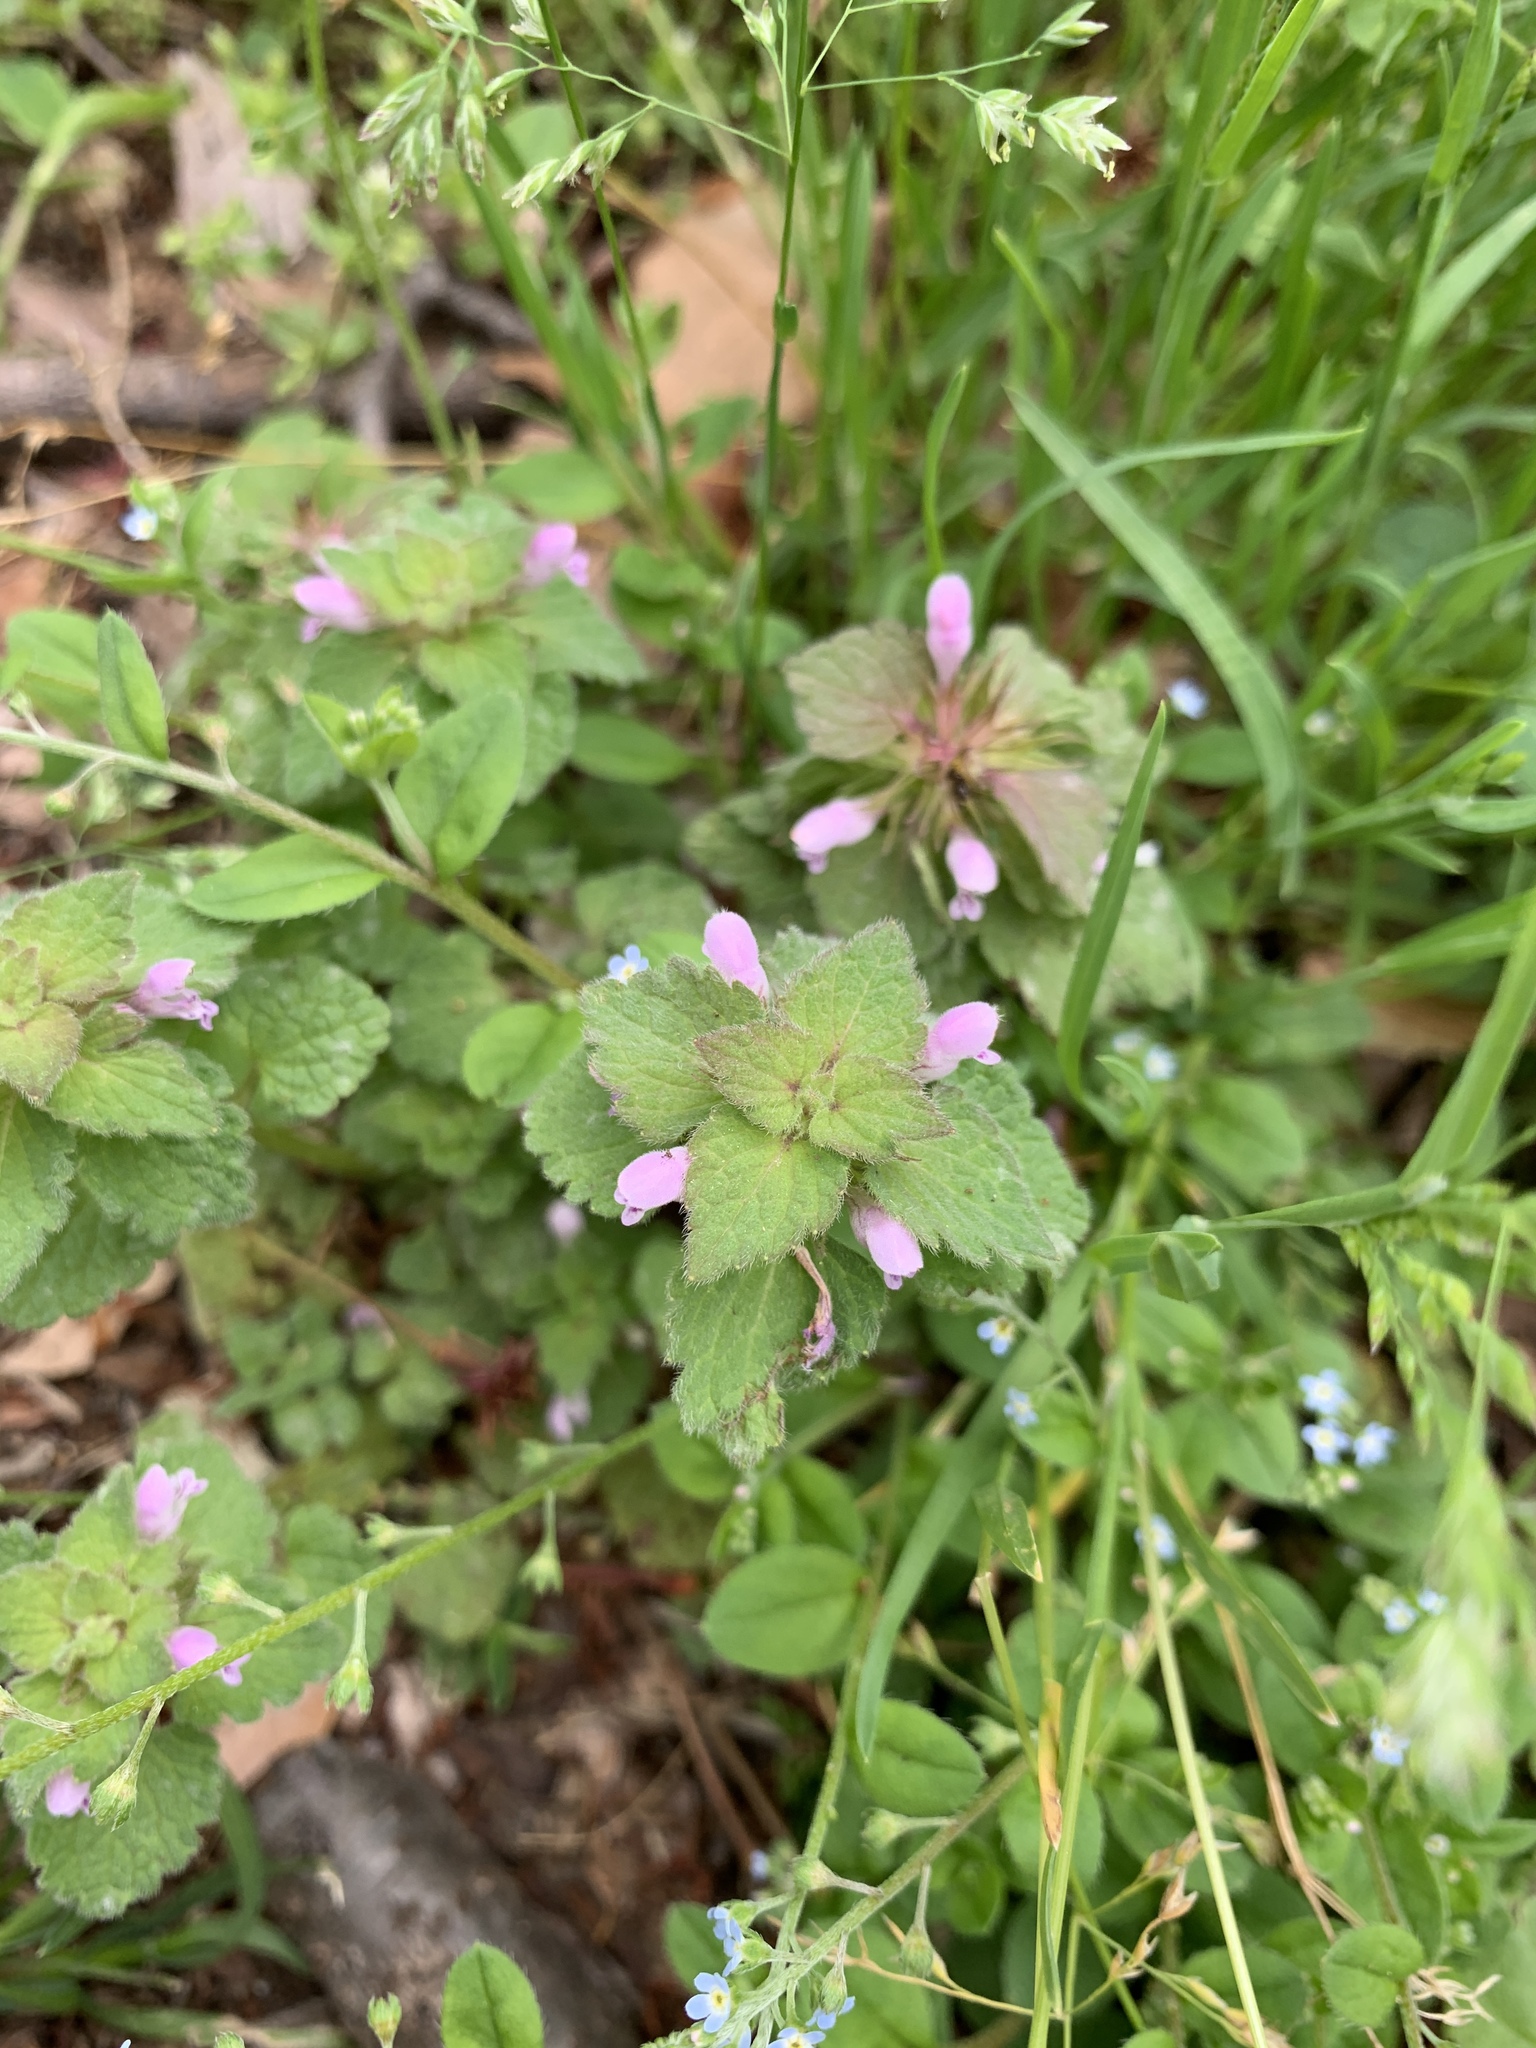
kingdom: Plantae
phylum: Tracheophyta
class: Magnoliopsida
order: Lamiales
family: Lamiaceae
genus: Lamium
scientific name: Lamium purpureum
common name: Red dead-nettle
